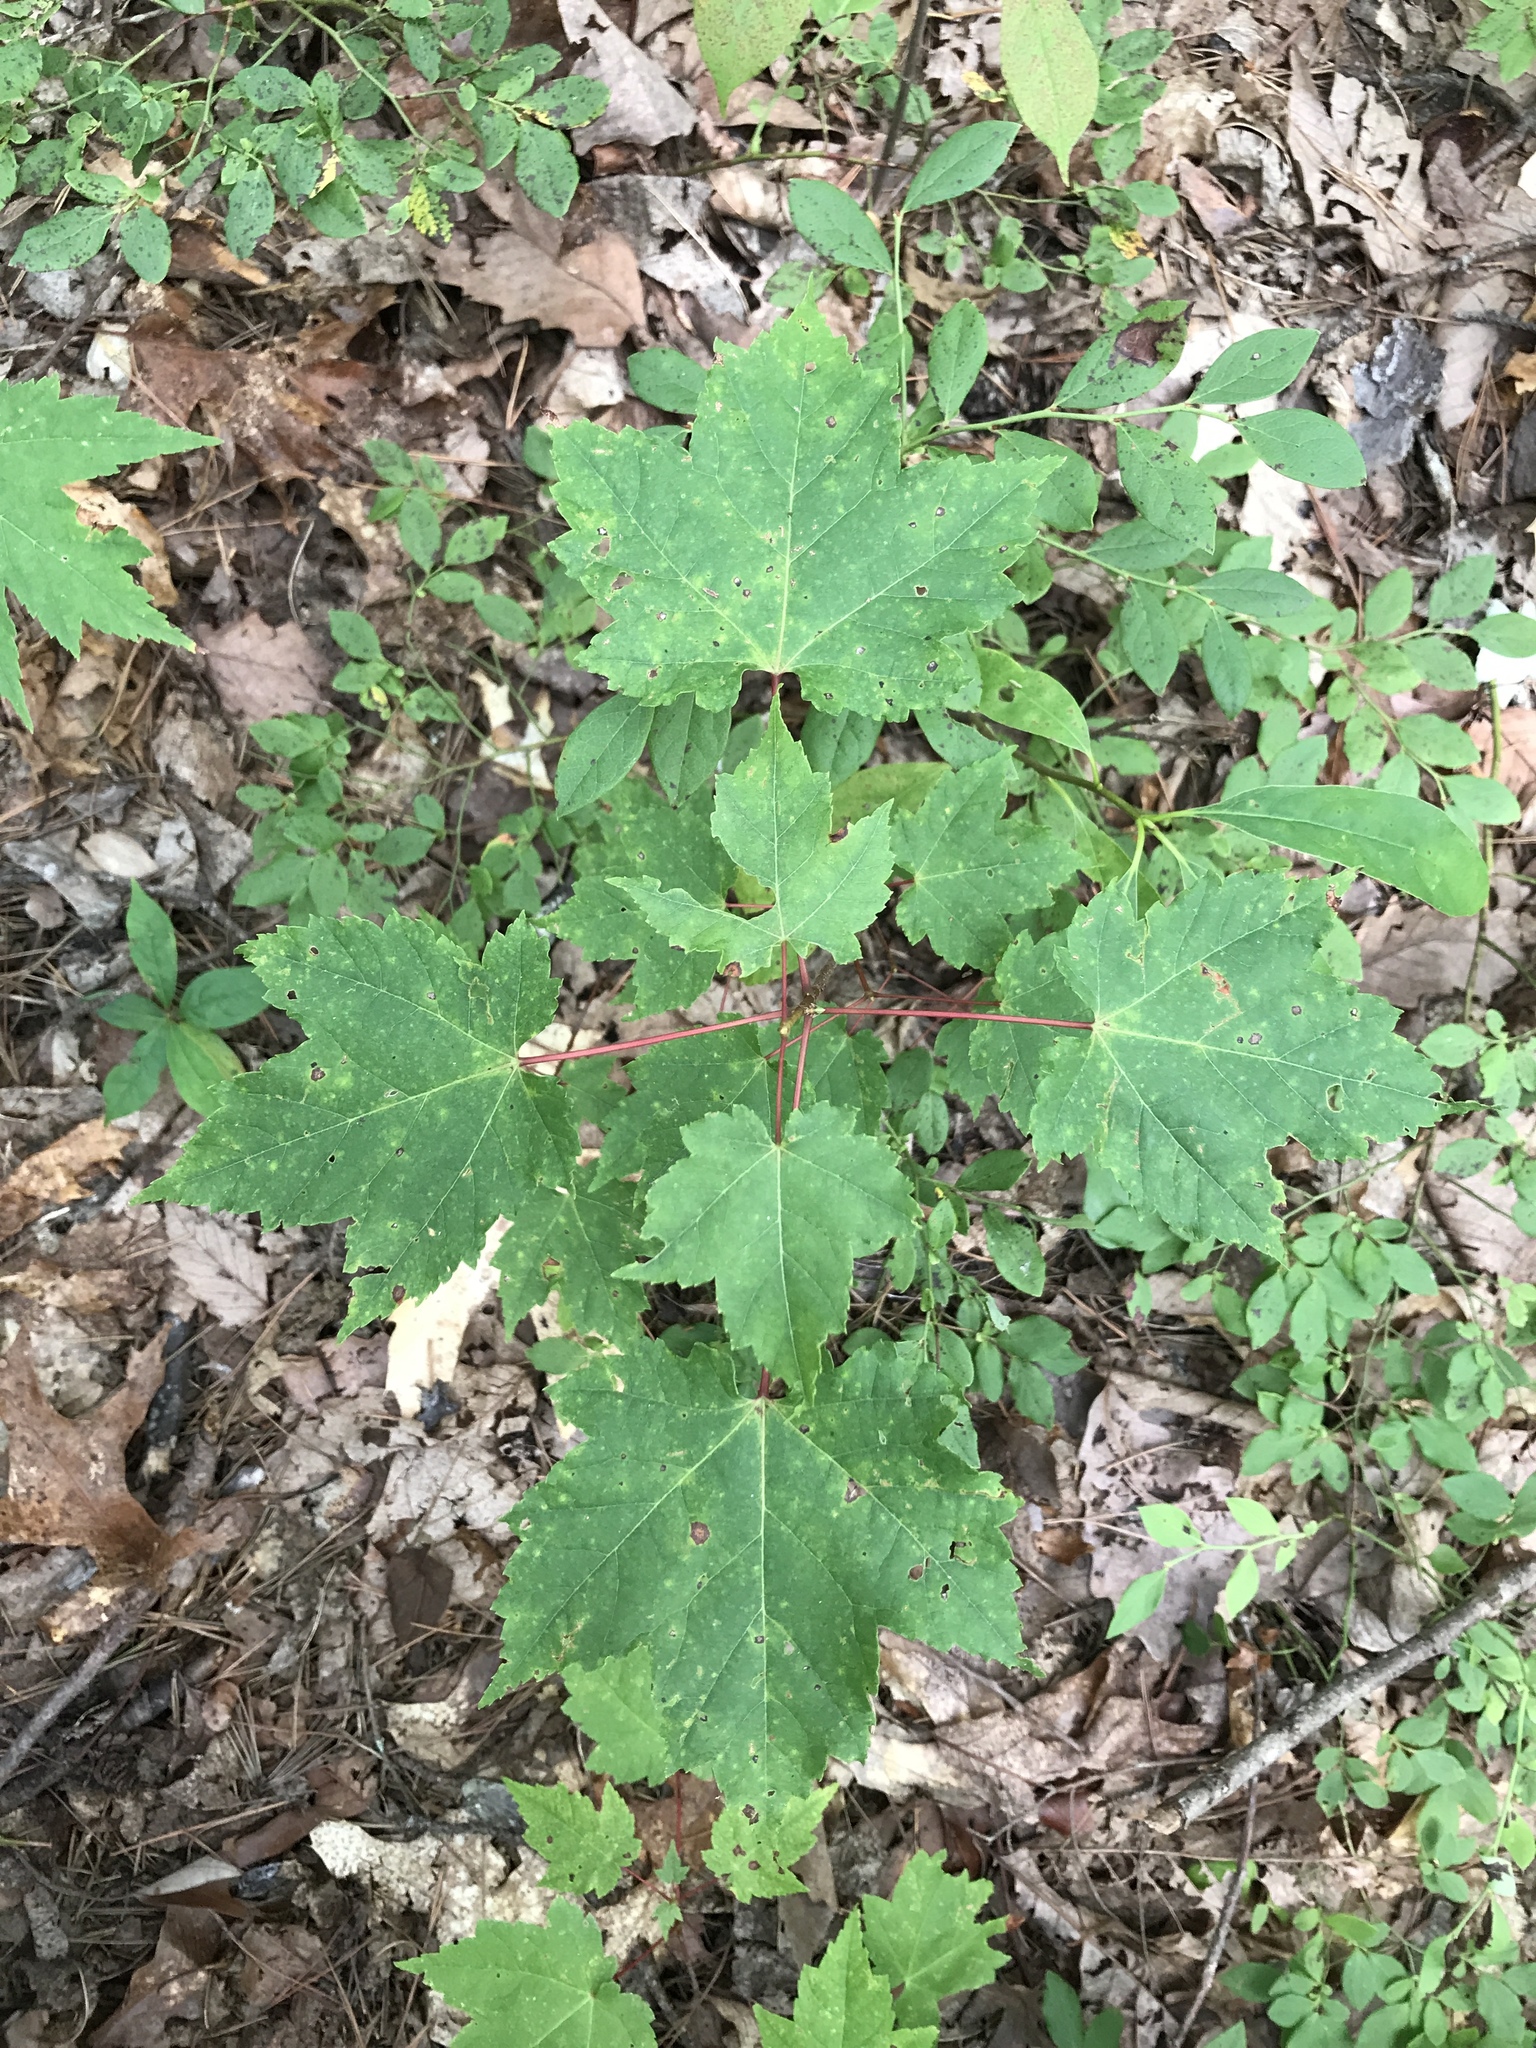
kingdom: Plantae
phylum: Tracheophyta
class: Magnoliopsida
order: Sapindales
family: Sapindaceae
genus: Acer
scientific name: Acer rubrum
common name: Red maple
